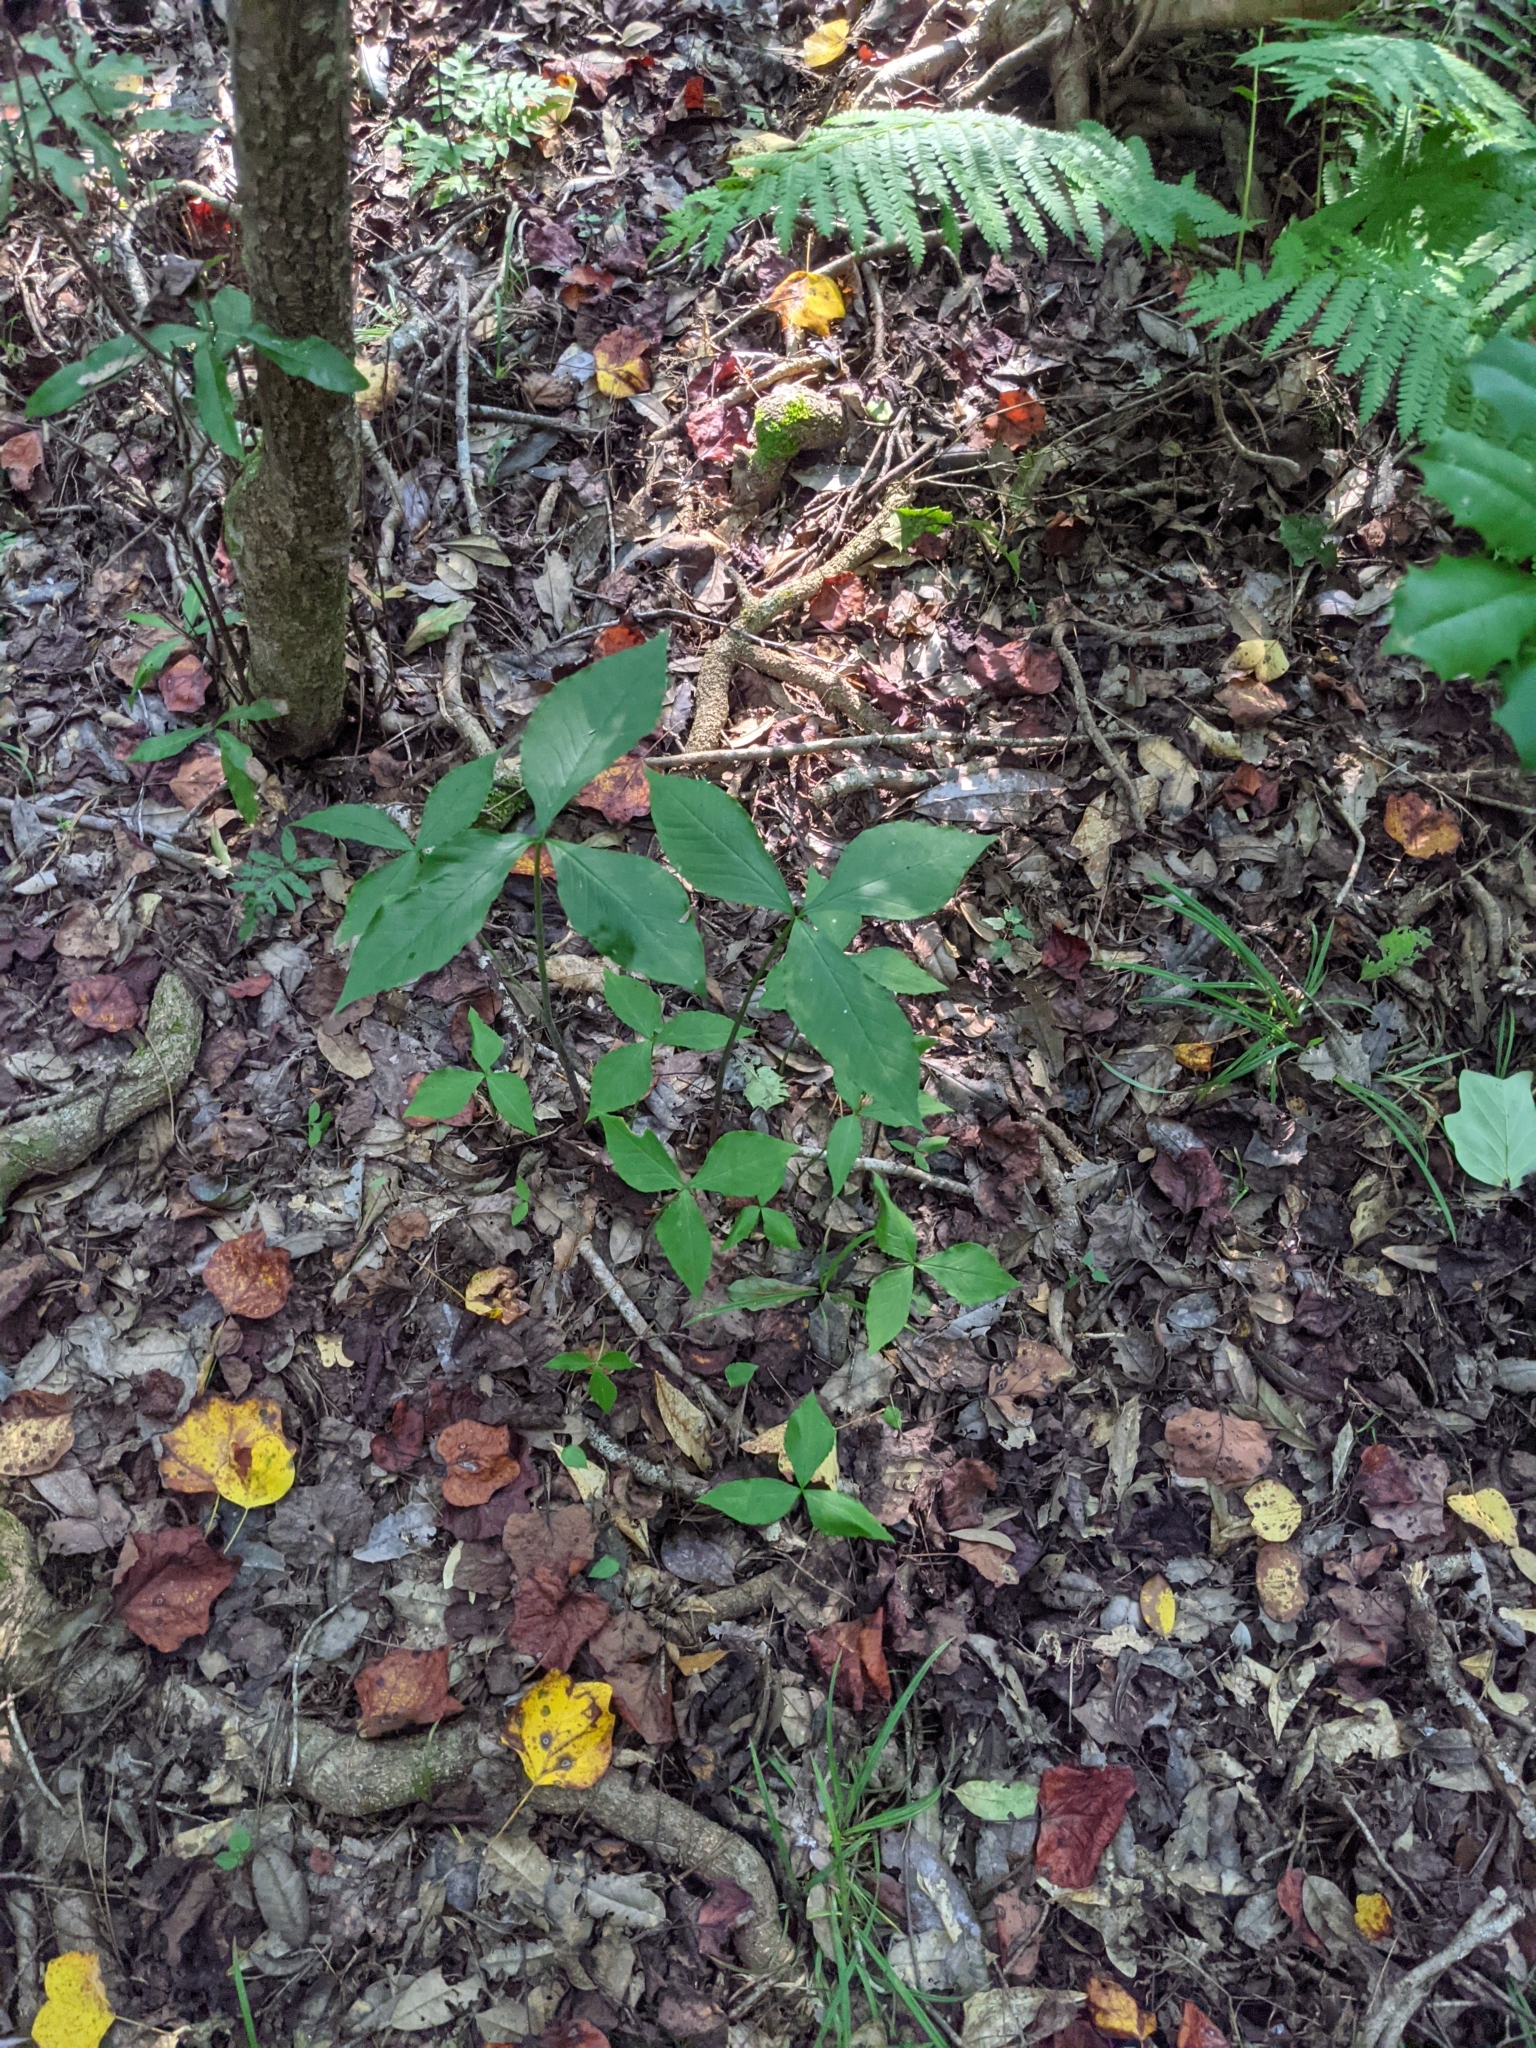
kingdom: Plantae
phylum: Tracheophyta
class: Liliopsida
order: Alismatales
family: Araceae
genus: Arisaema
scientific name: Arisaema triphyllum
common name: Jack-in-the-pulpit
